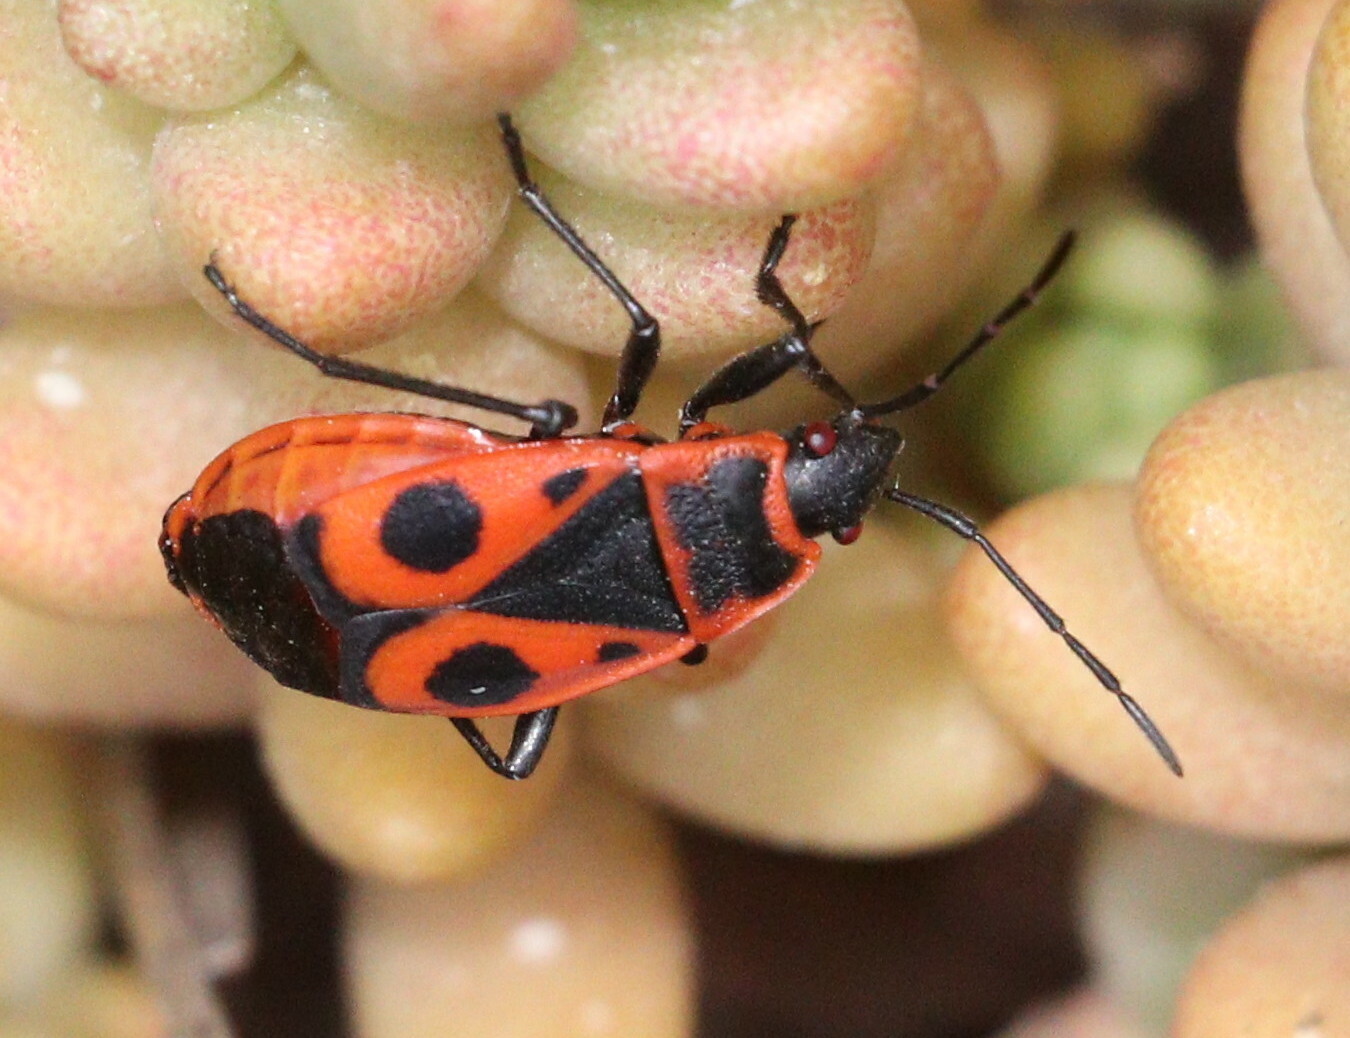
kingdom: Animalia
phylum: Arthropoda
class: Insecta
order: Hemiptera
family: Pyrrhocoridae
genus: Pyrrhocoris
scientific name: Pyrrhocoris apterus
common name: Firebug
